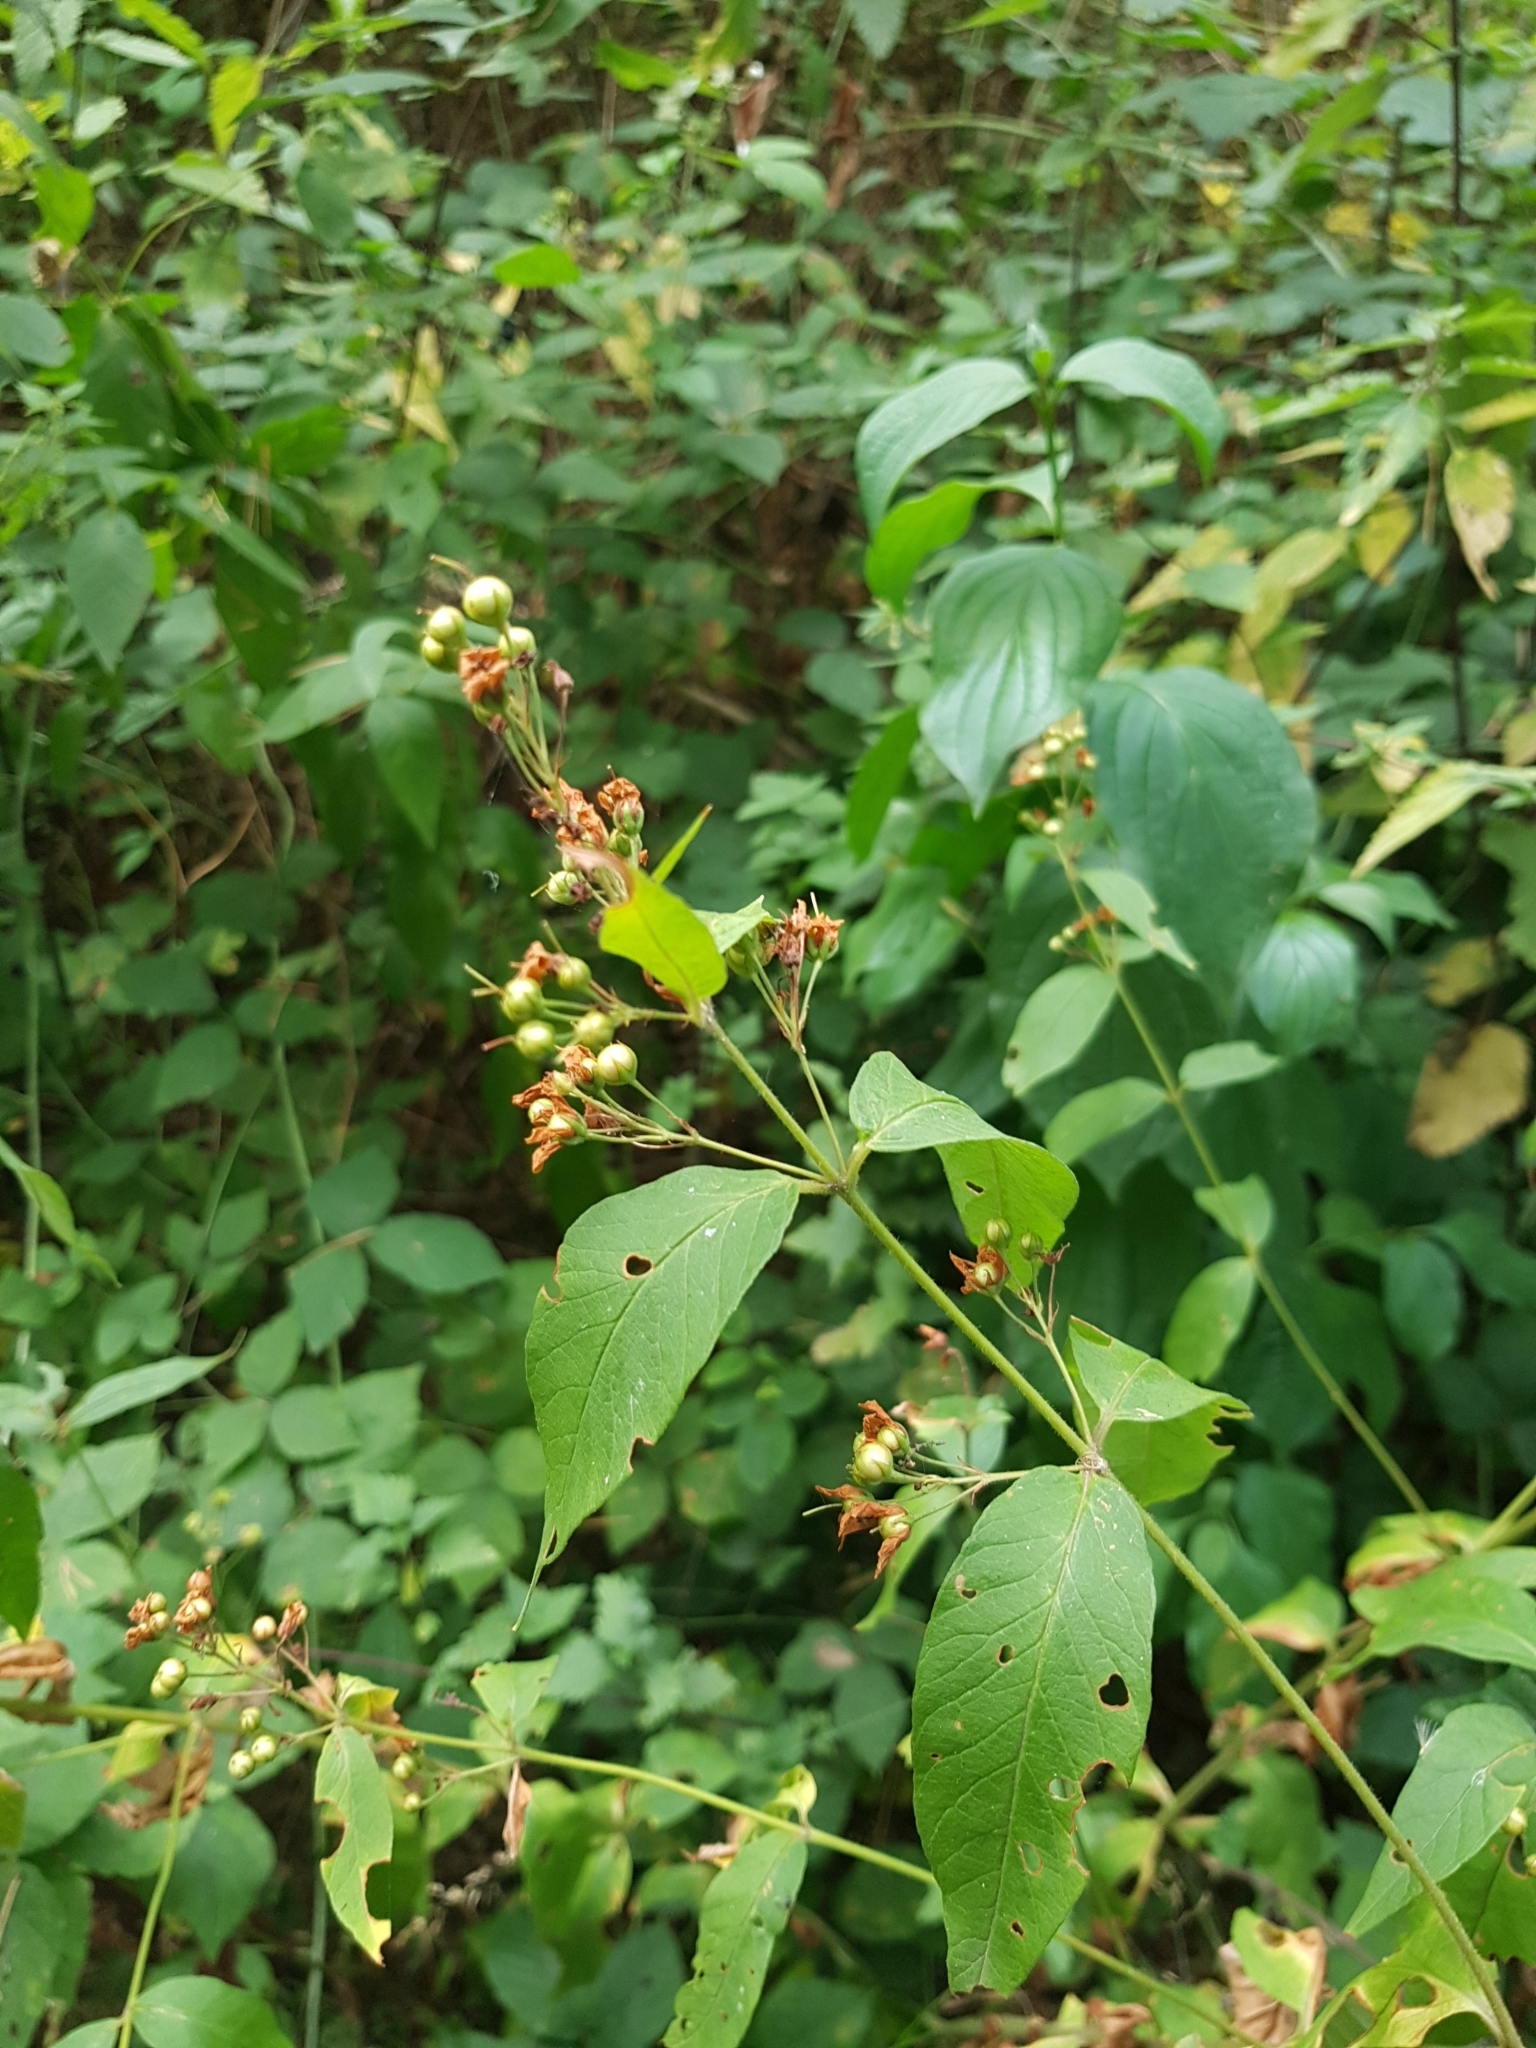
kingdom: Plantae
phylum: Tracheophyta
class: Magnoliopsida
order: Ericales
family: Primulaceae
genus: Lysimachia
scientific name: Lysimachia vulgaris
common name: Yellow loosestrife
